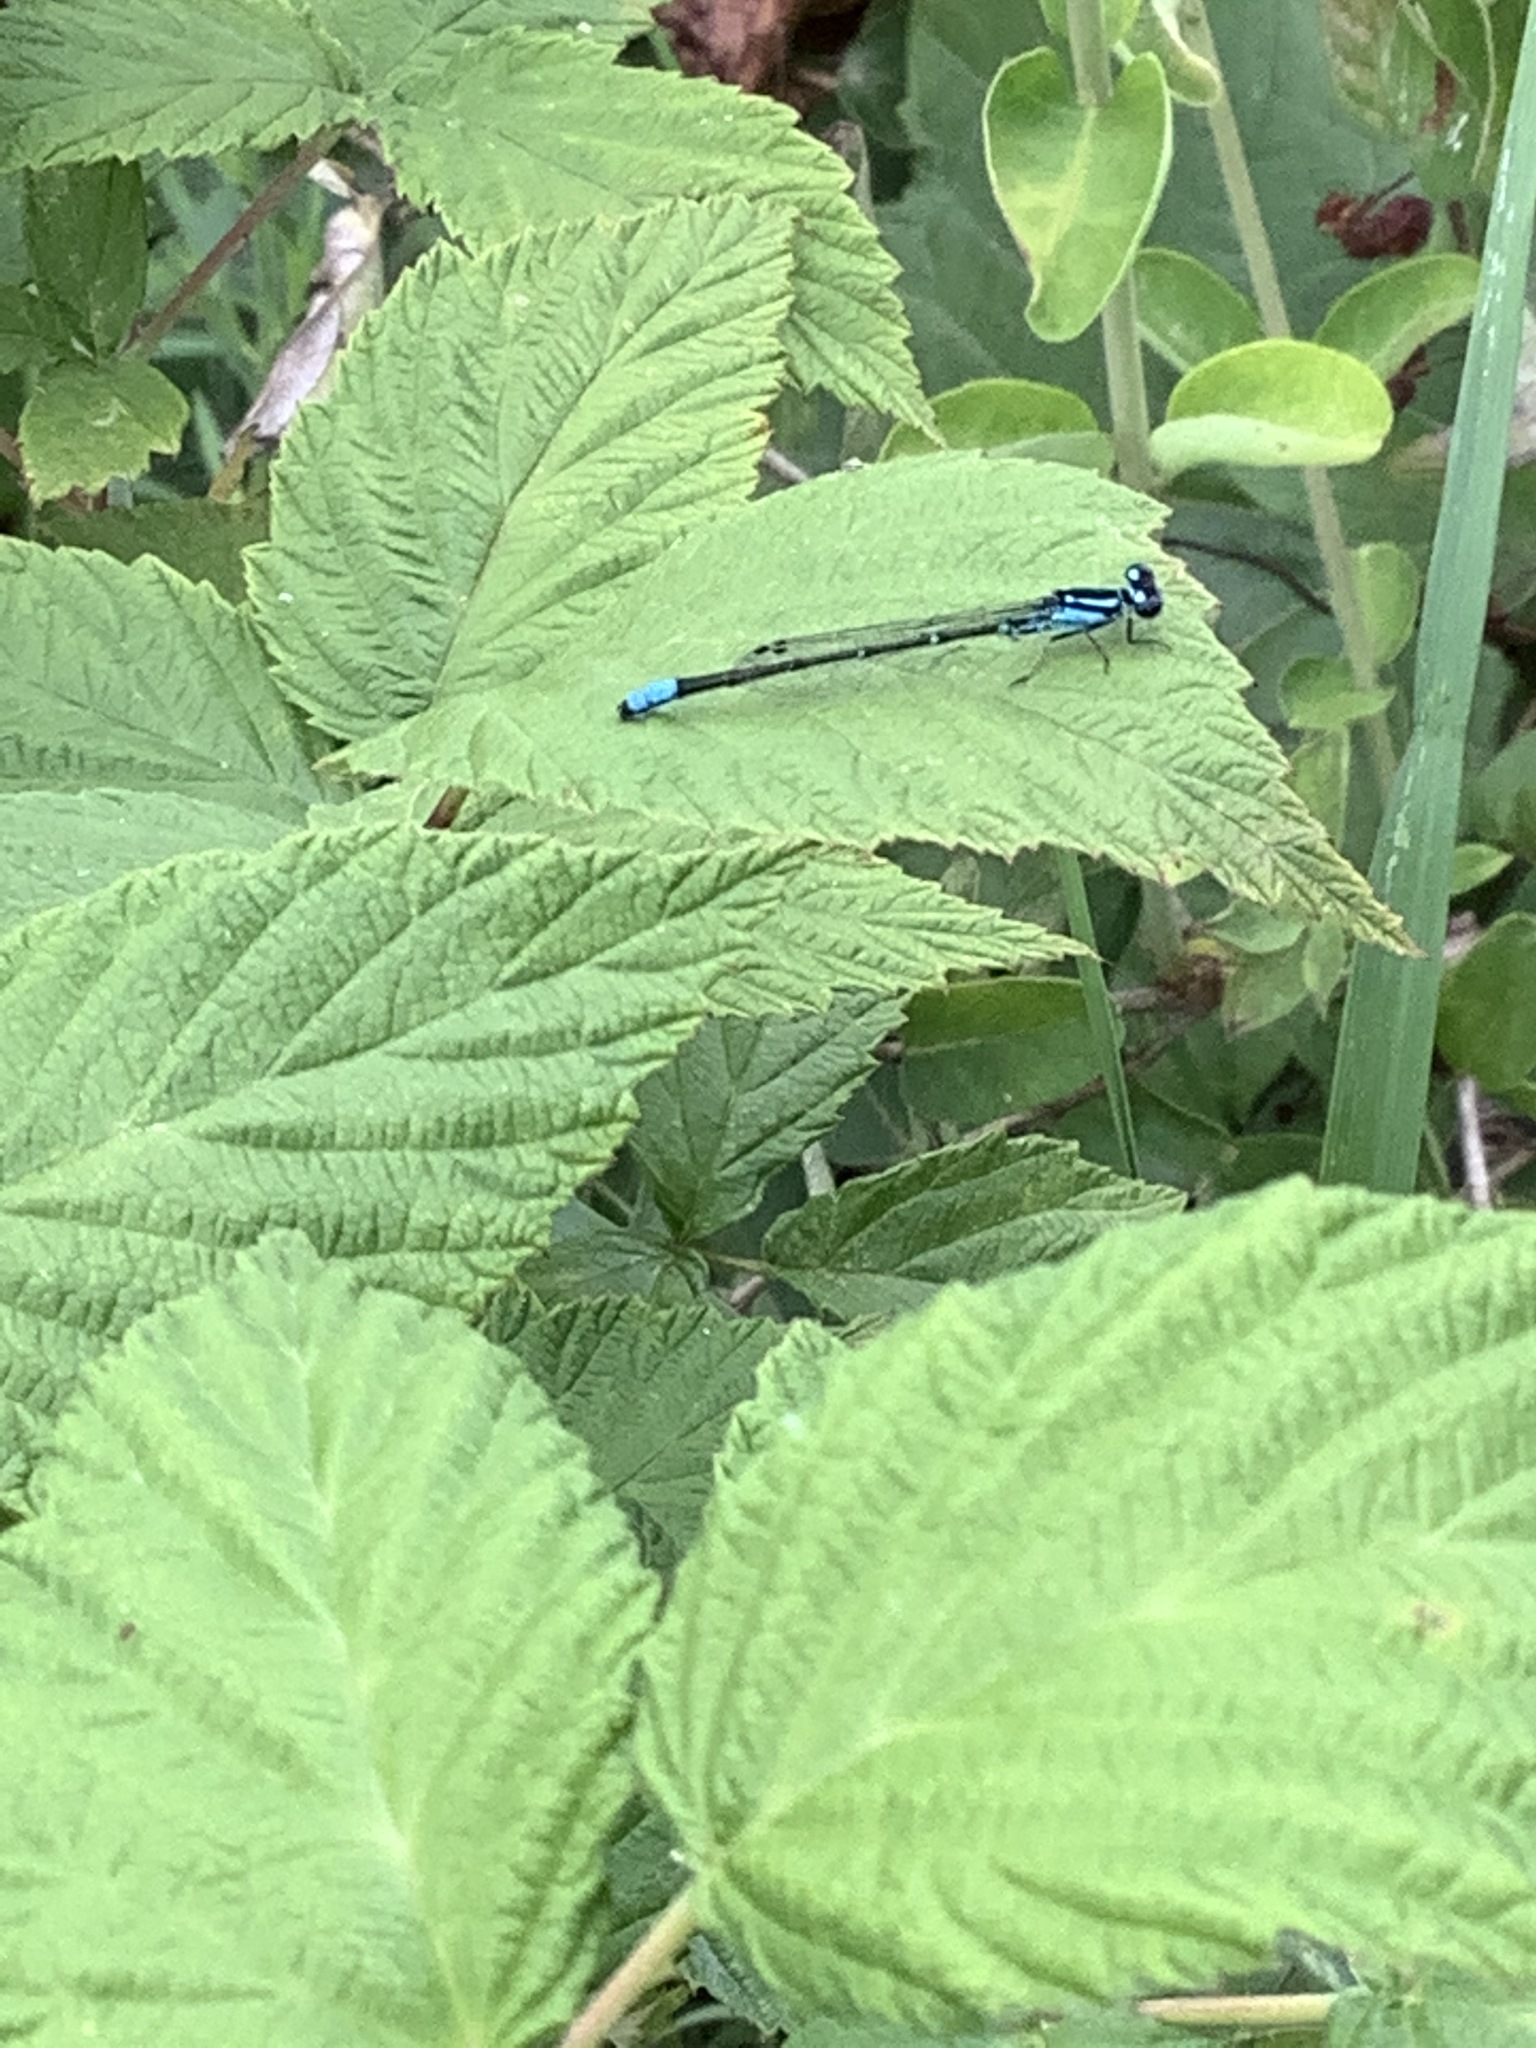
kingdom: Animalia
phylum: Arthropoda
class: Insecta
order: Odonata
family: Coenagrionidae
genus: Enallagma
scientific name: Enallagma geminatum
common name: Skimming bluet
